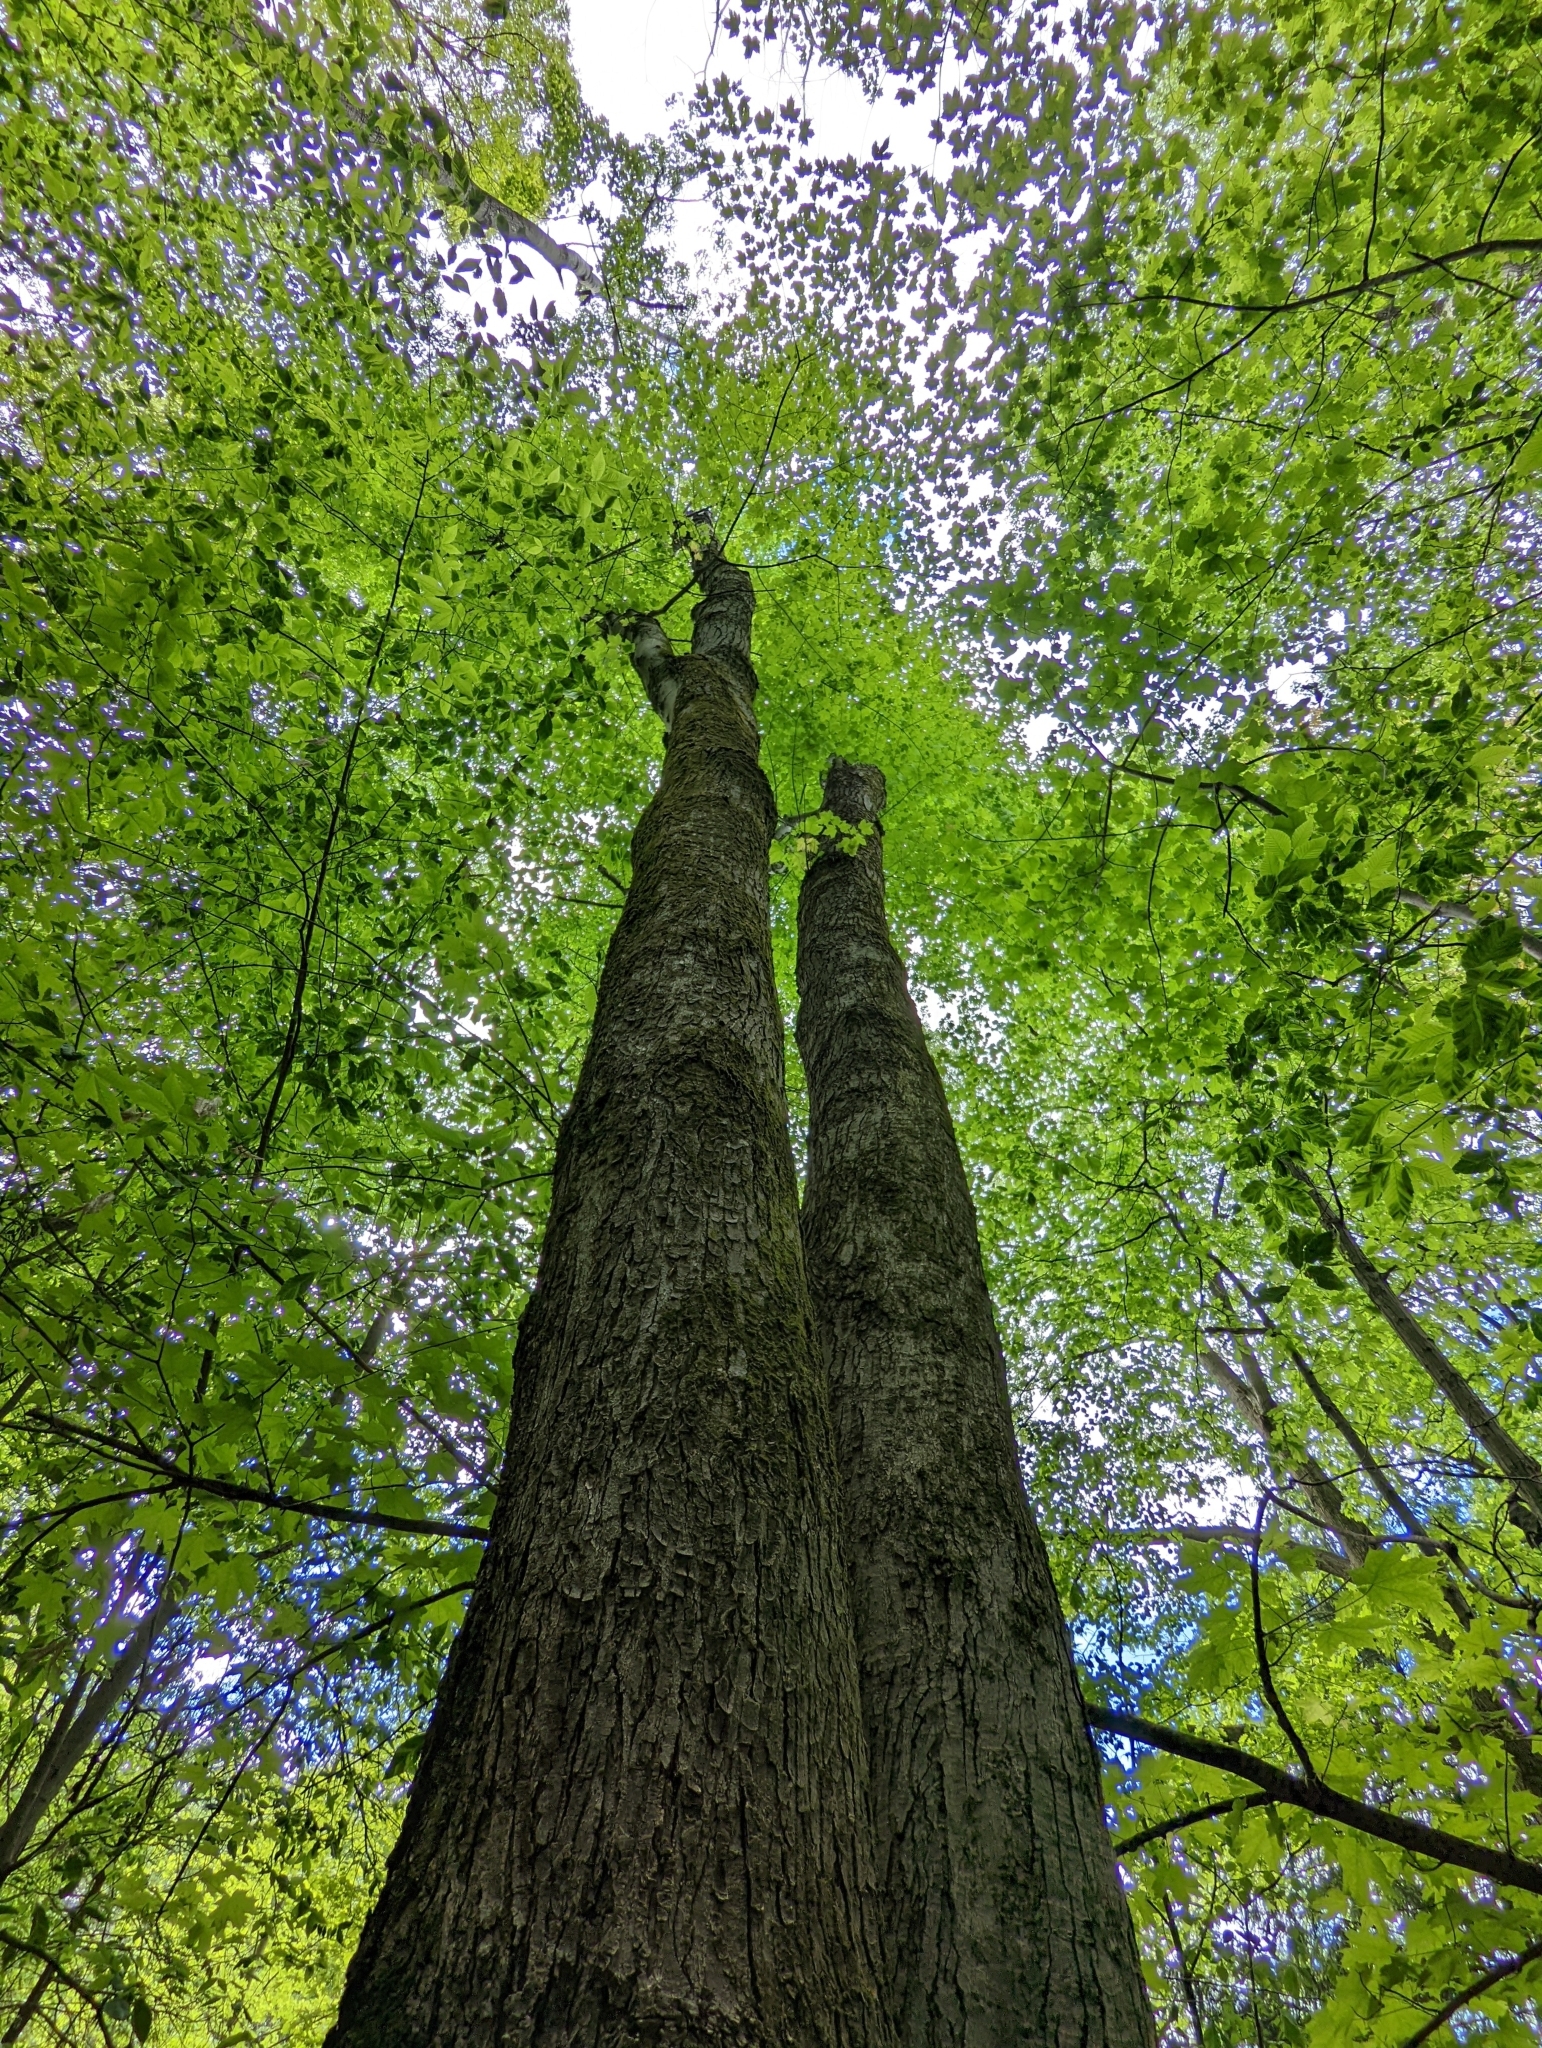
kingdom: Plantae
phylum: Tracheophyta
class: Magnoliopsida
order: Sapindales
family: Sapindaceae
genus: Acer
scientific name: Acer rubrum
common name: Red maple
